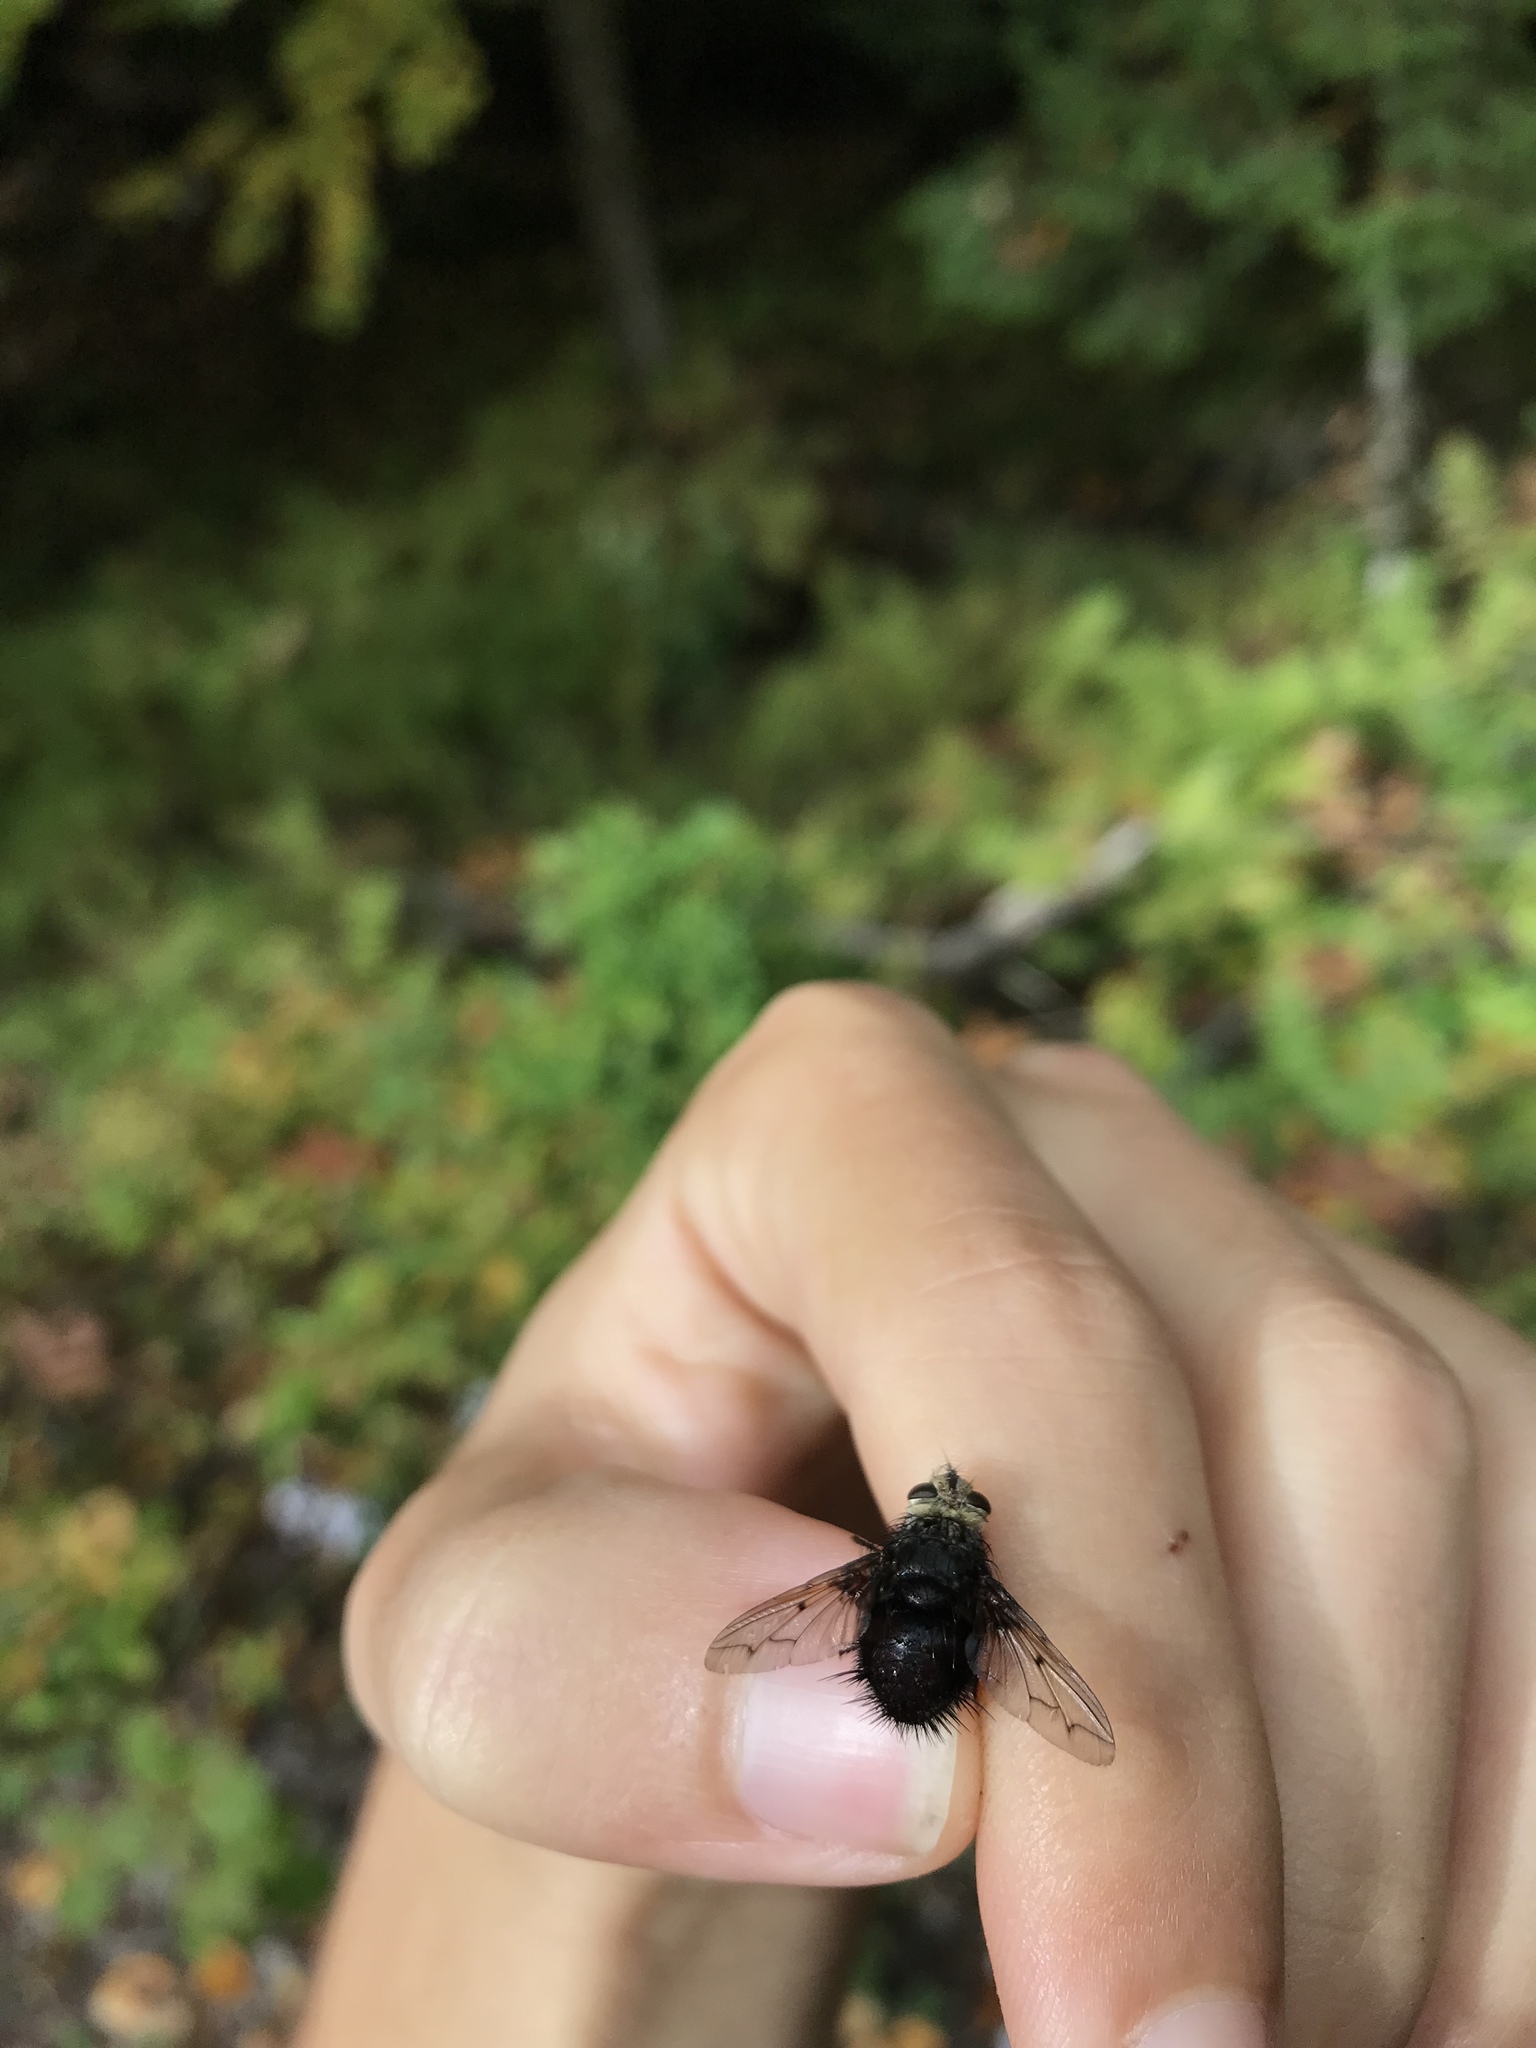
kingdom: Animalia
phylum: Arthropoda
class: Insecta
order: Diptera
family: Tachinidae
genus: Pararchytas
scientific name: Pararchytas decisus
